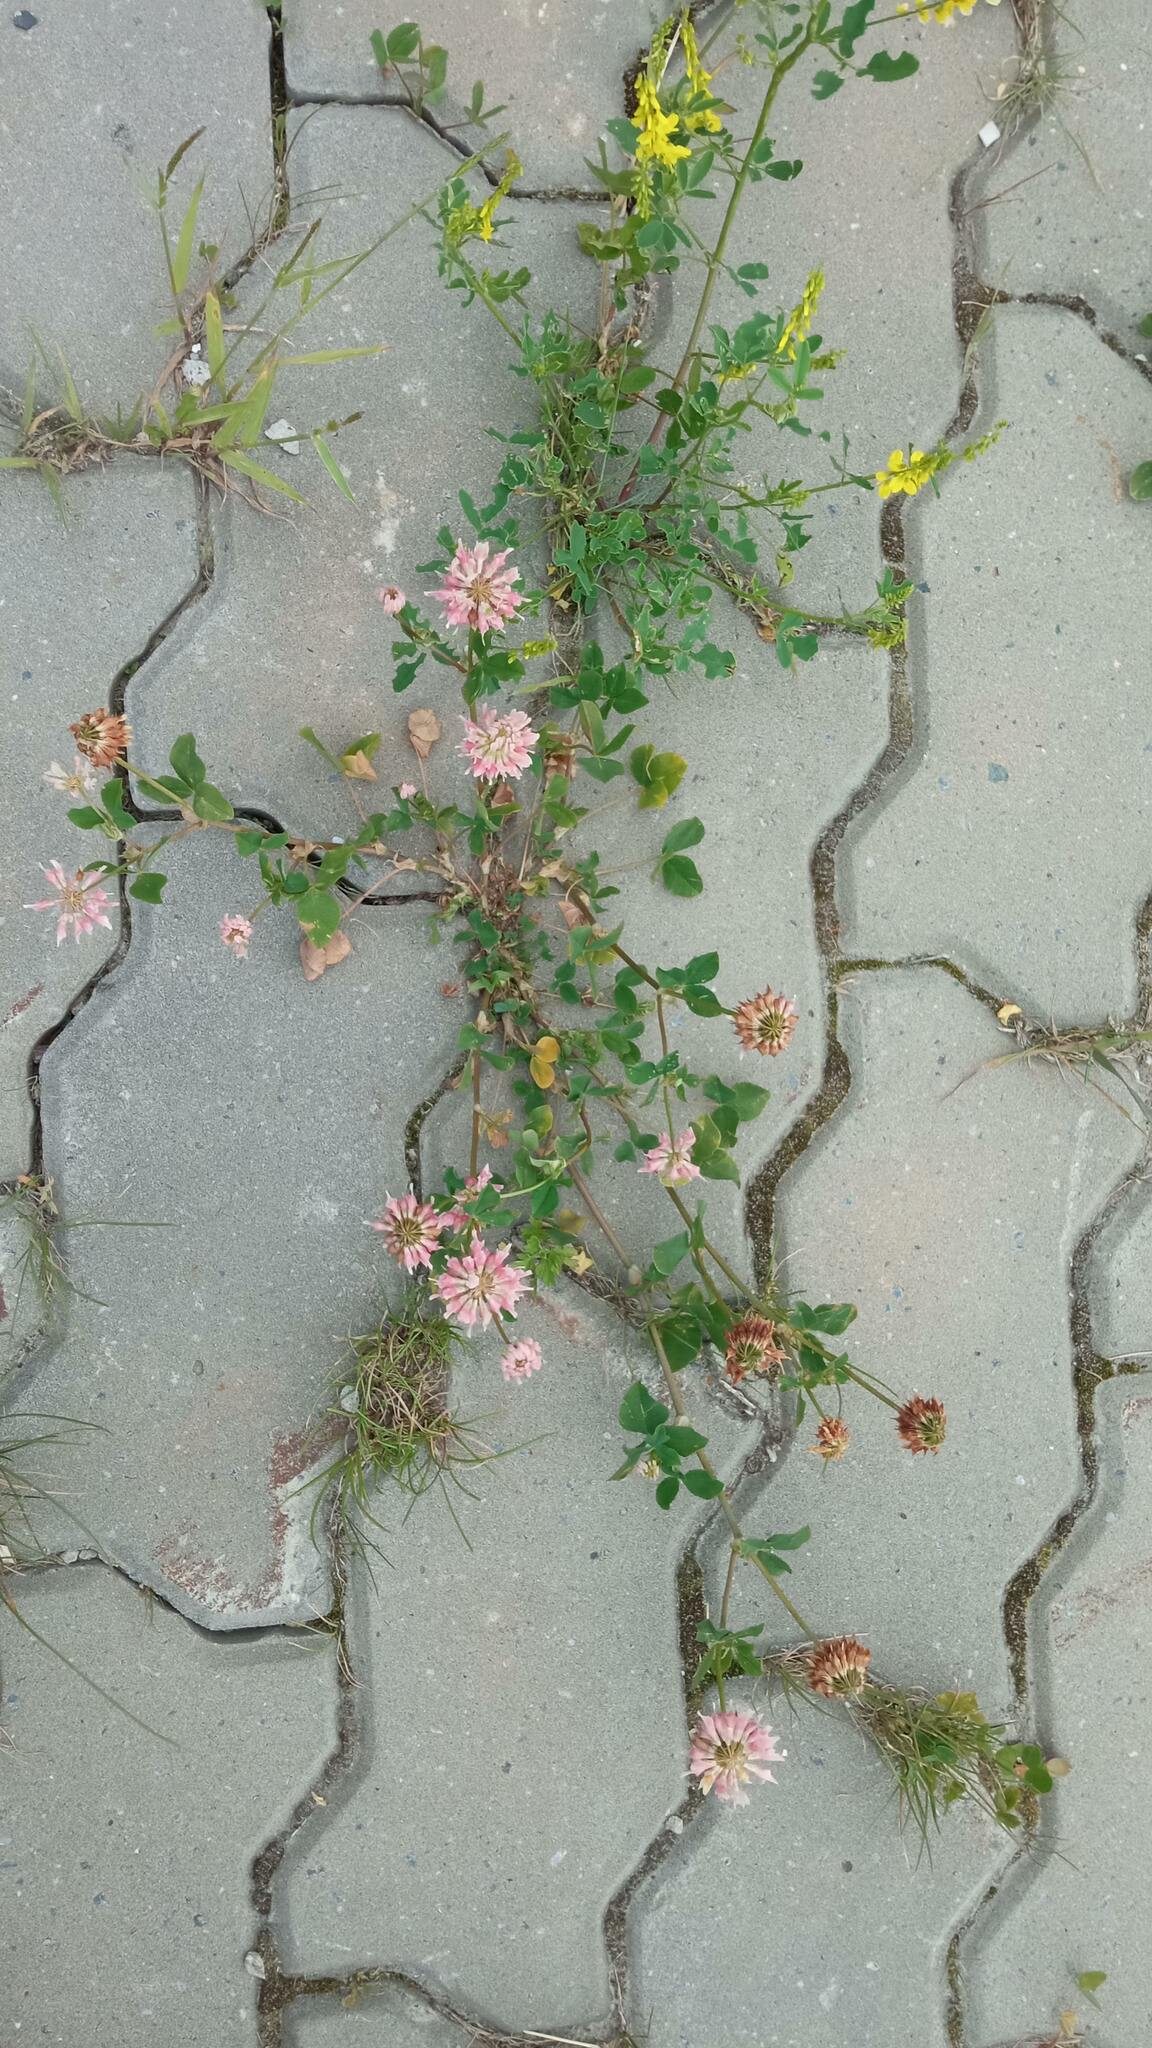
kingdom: Plantae
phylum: Tracheophyta
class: Magnoliopsida
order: Fabales
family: Fabaceae
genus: Trifolium
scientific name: Trifolium hybridum
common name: Alsike clover
